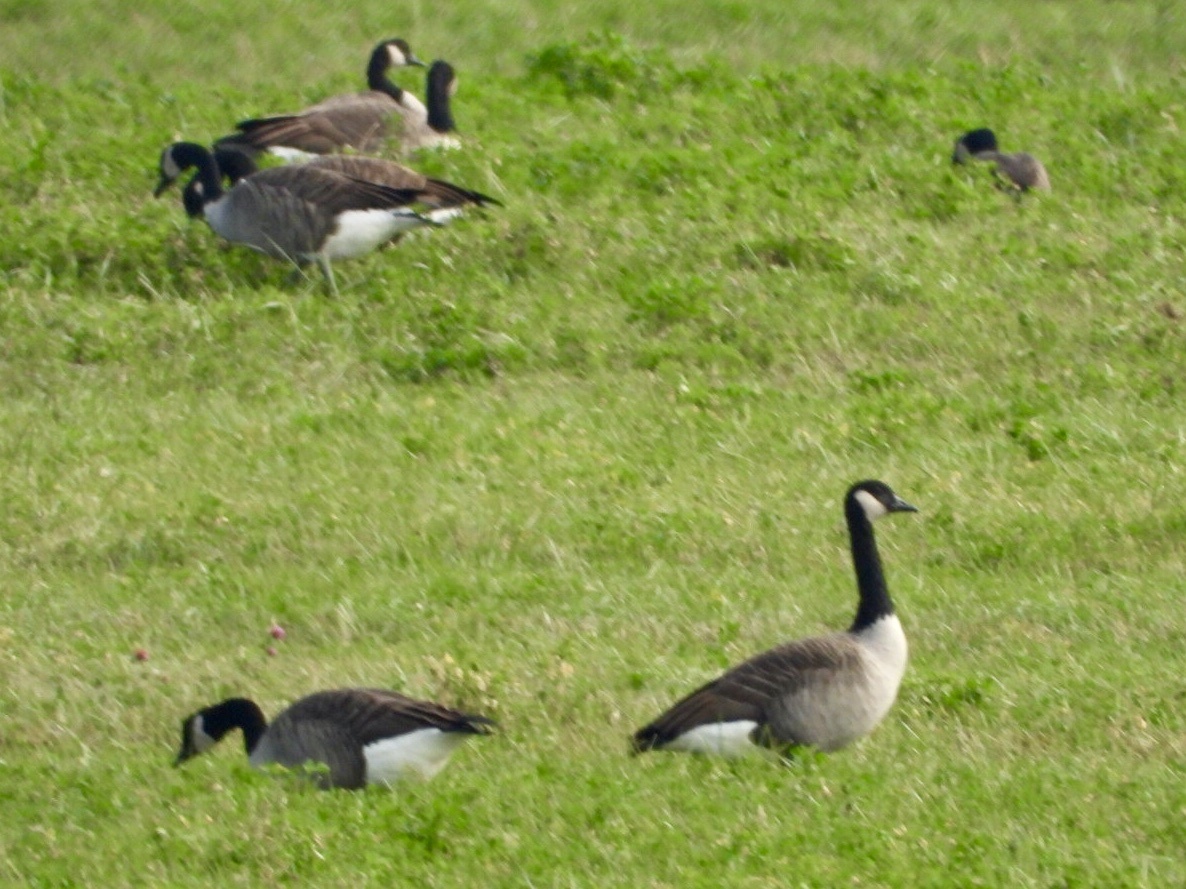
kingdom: Animalia
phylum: Chordata
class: Aves
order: Anseriformes
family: Anatidae
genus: Branta
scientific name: Branta canadensis
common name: Canada goose
